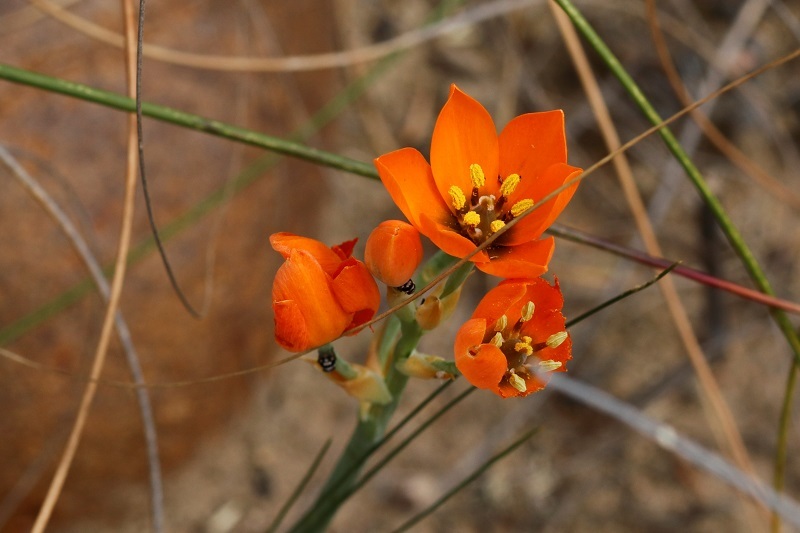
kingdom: Plantae
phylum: Tracheophyta
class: Liliopsida
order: Asparagales
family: Asparagaceae
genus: Ornithogalum
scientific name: Ornithogalum dubium
